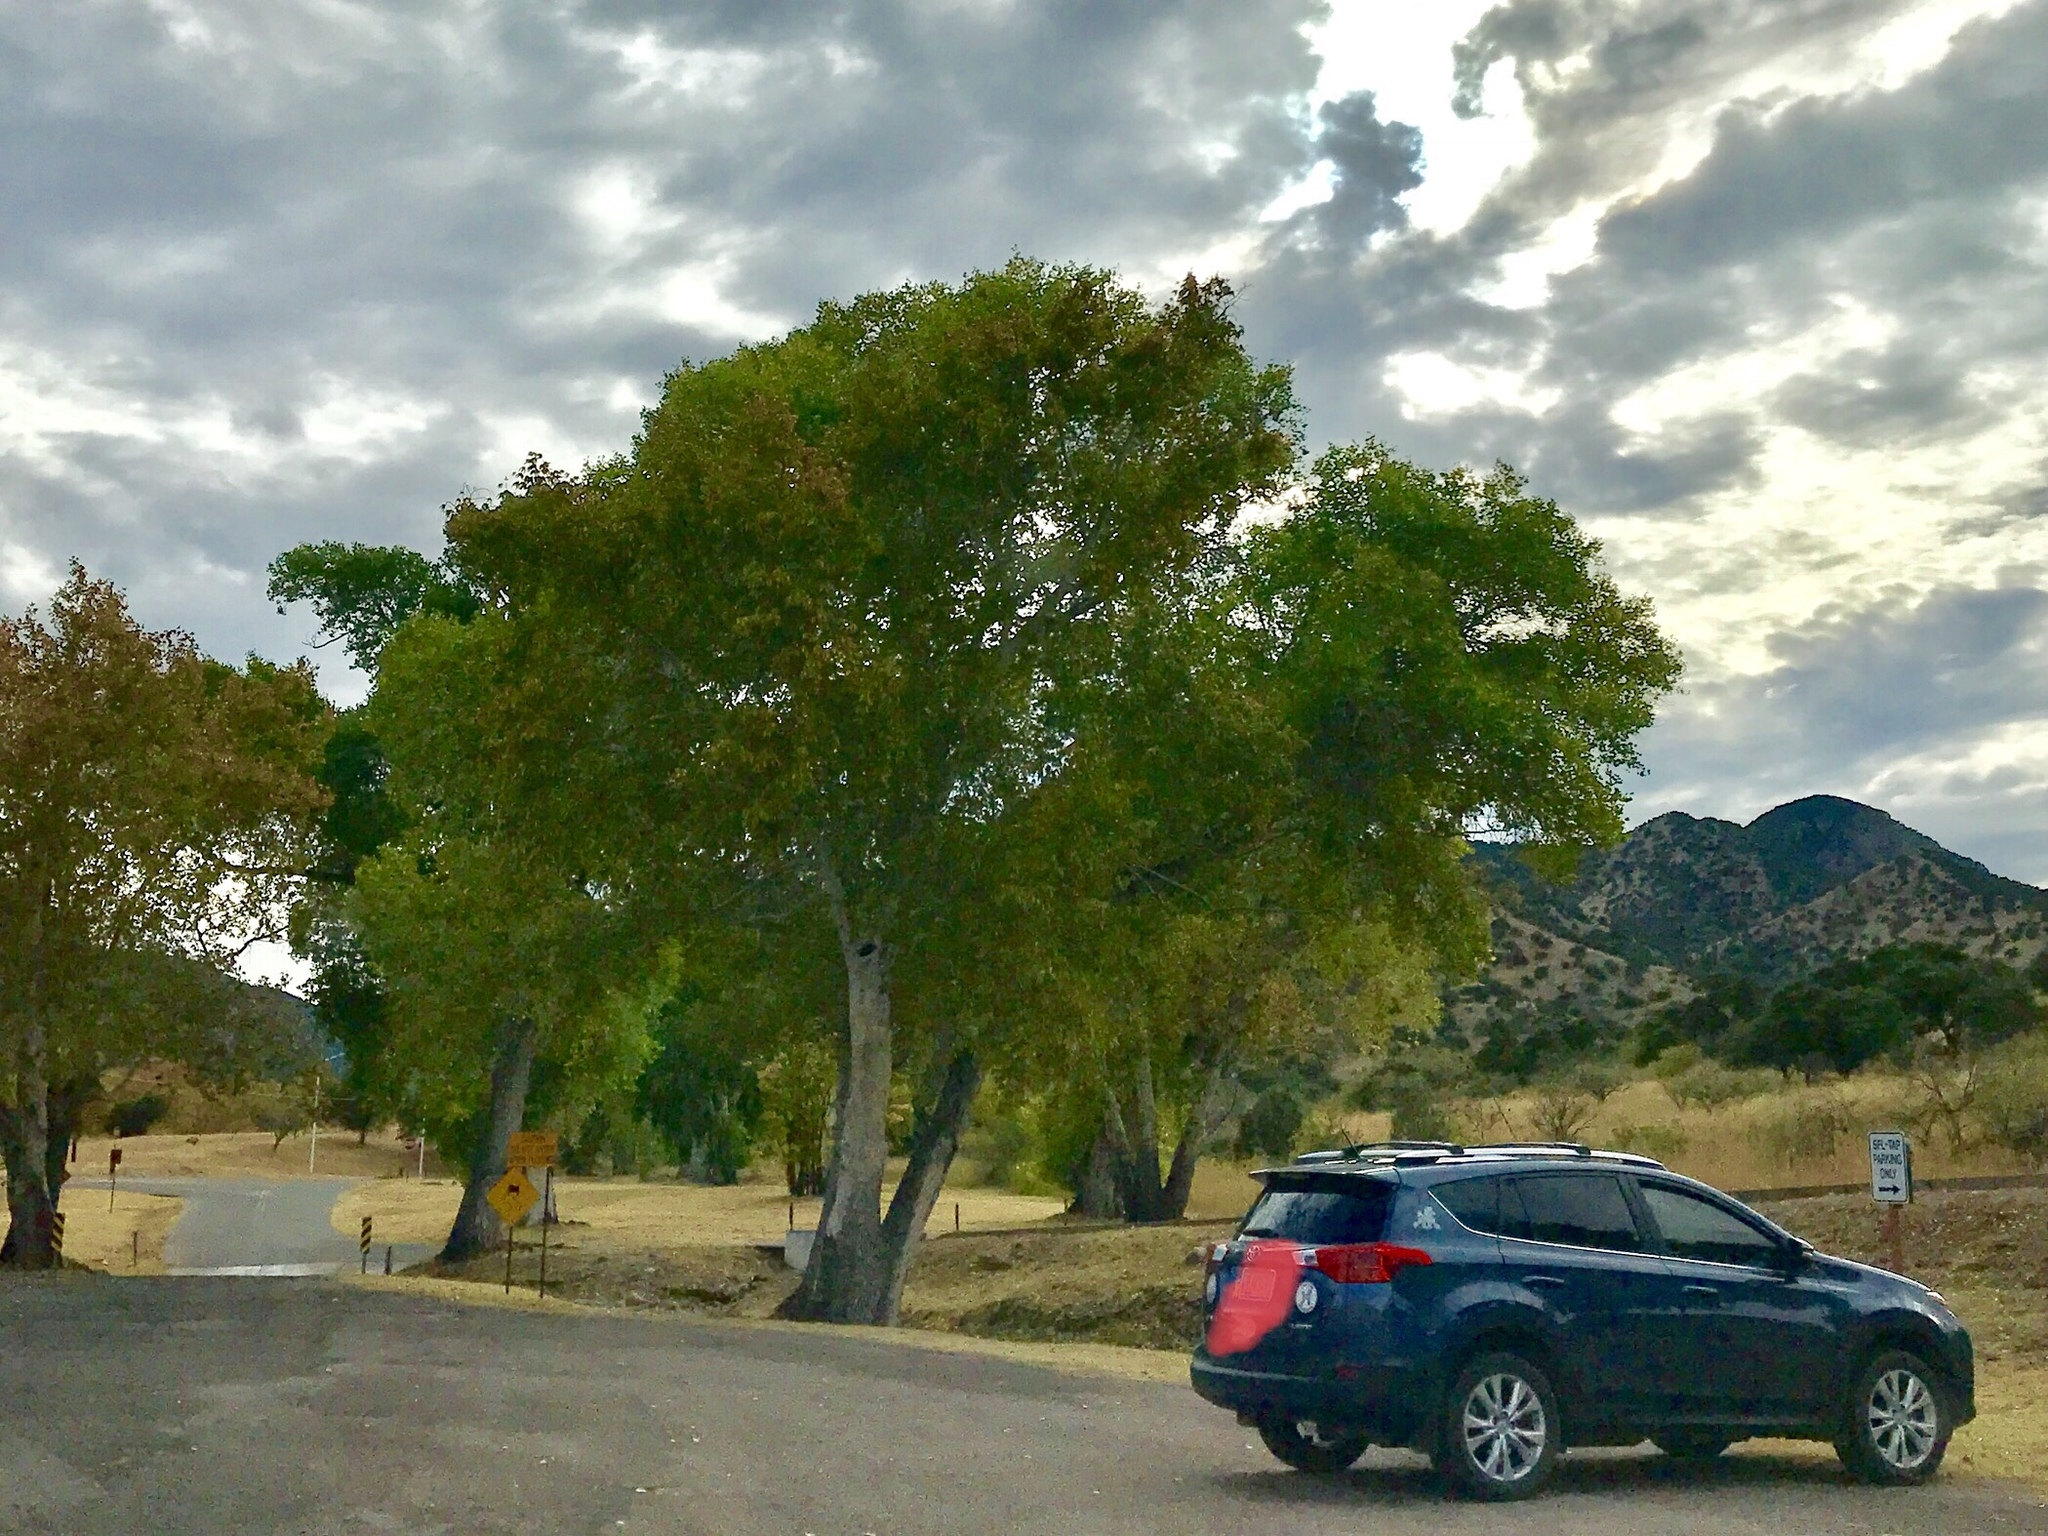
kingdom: Plantae
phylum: Tracheophyta
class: Magnoliopsida
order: Proteales
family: Platanaceae
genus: Platanus
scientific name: Platanus wrightii
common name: Arizona sycamore
